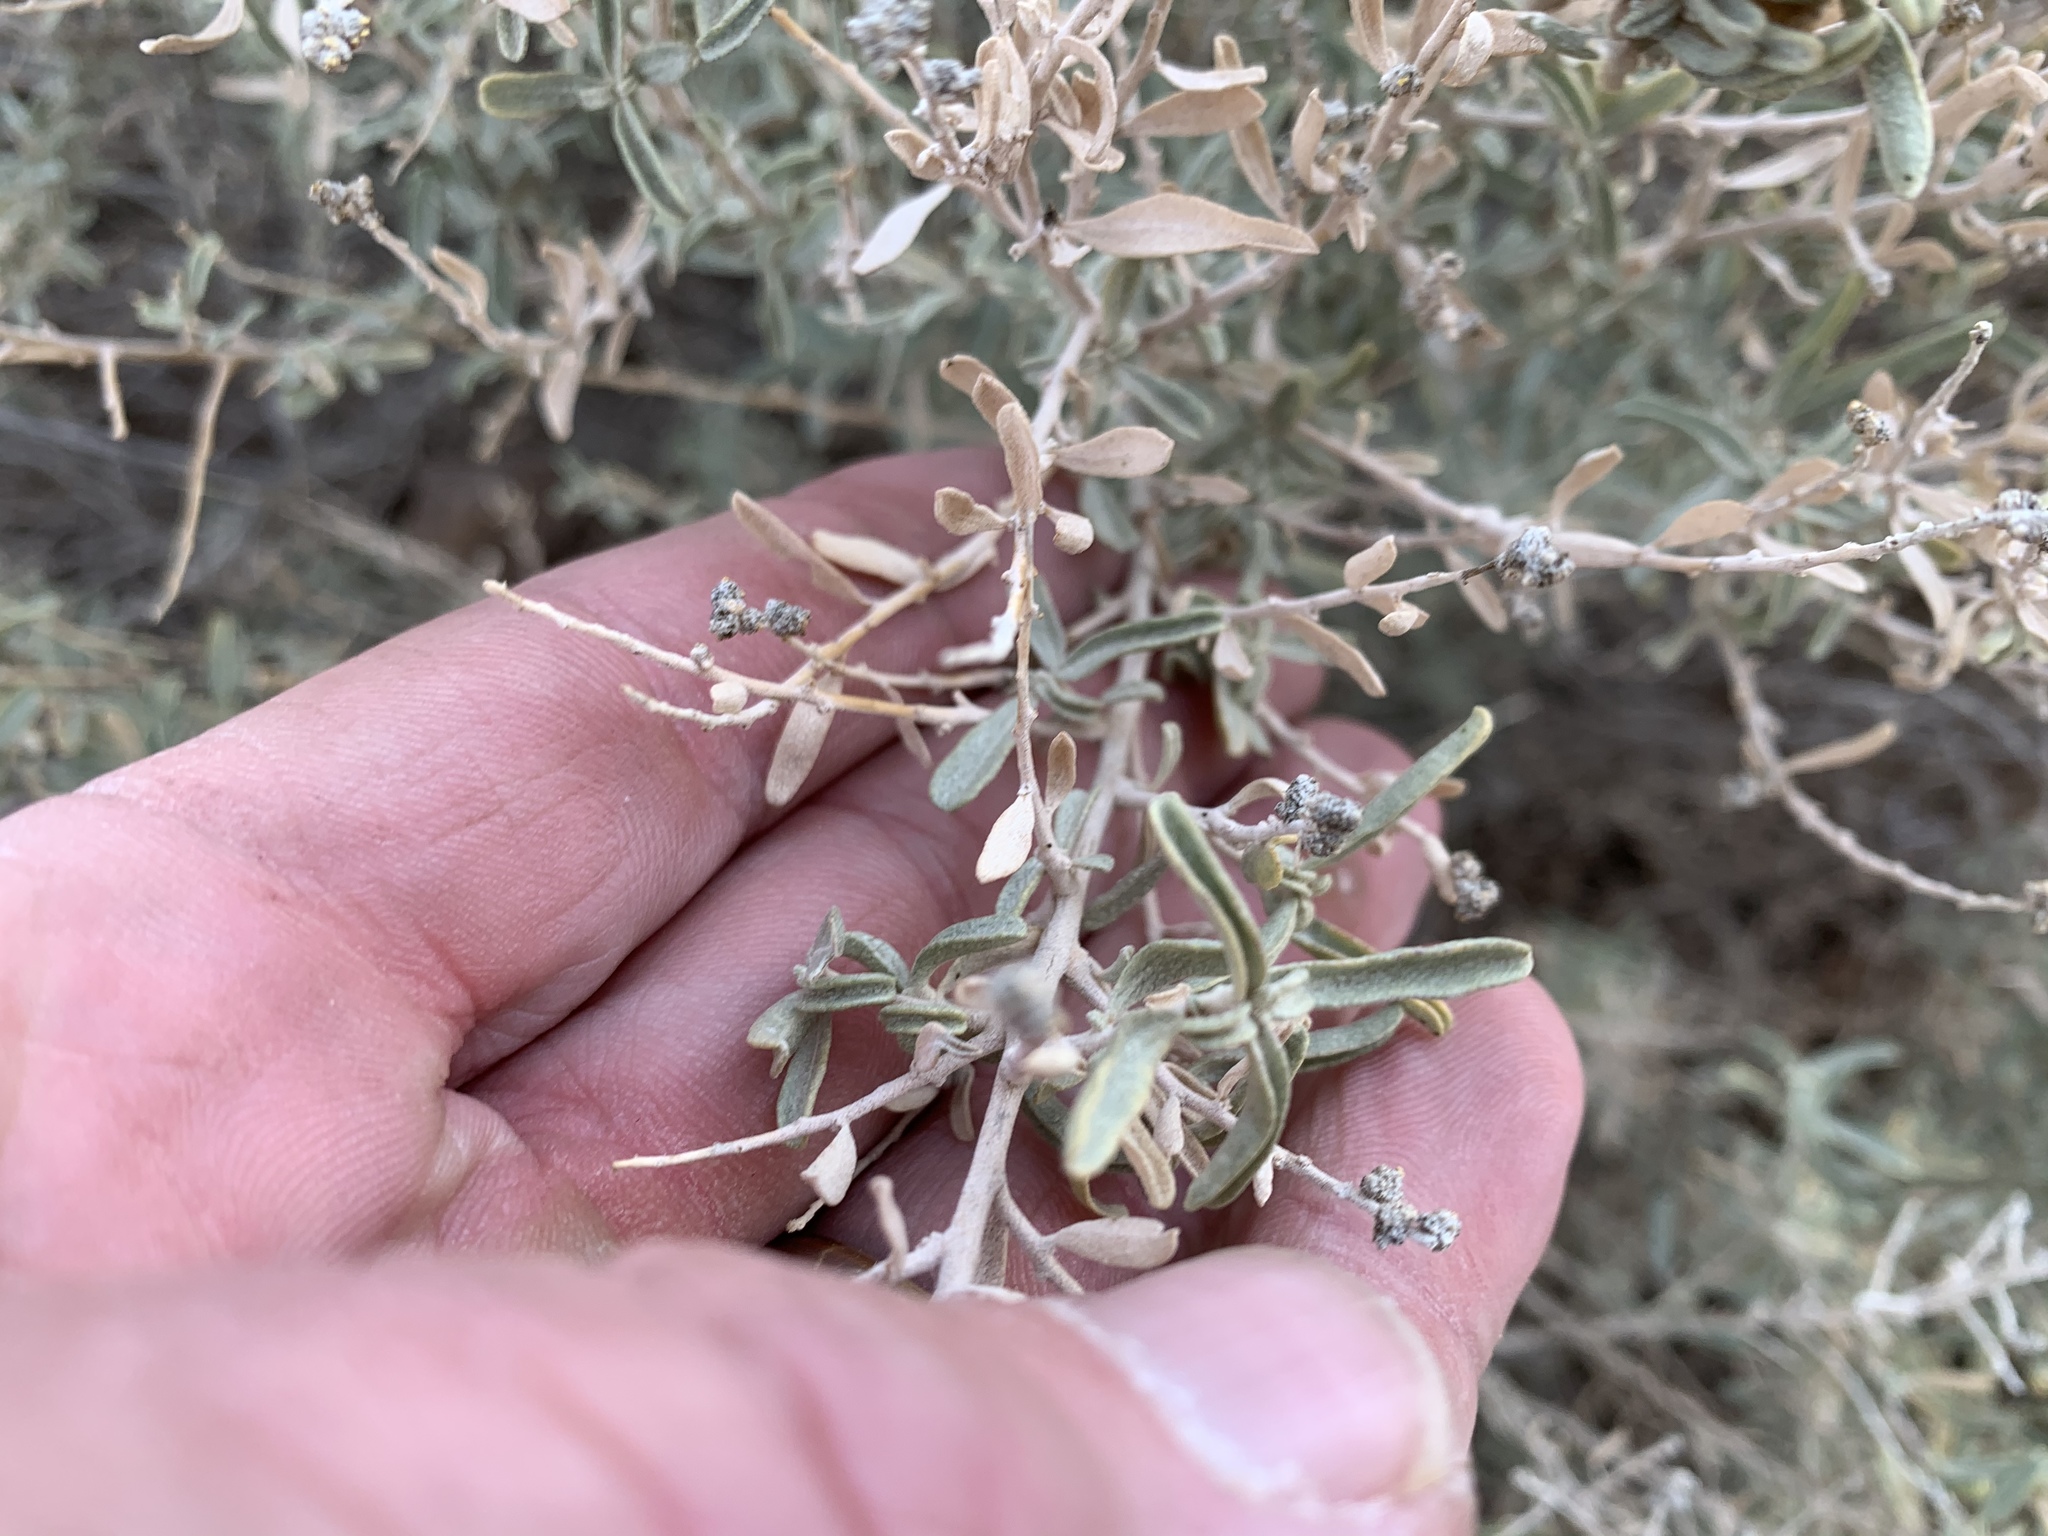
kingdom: Plantae
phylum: Tracheophyta
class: Magnoliopsida
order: Caryophyllales
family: Amaranthaceae
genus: Atriplex
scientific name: Atriplex canescens
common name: Four-wing saltbush
